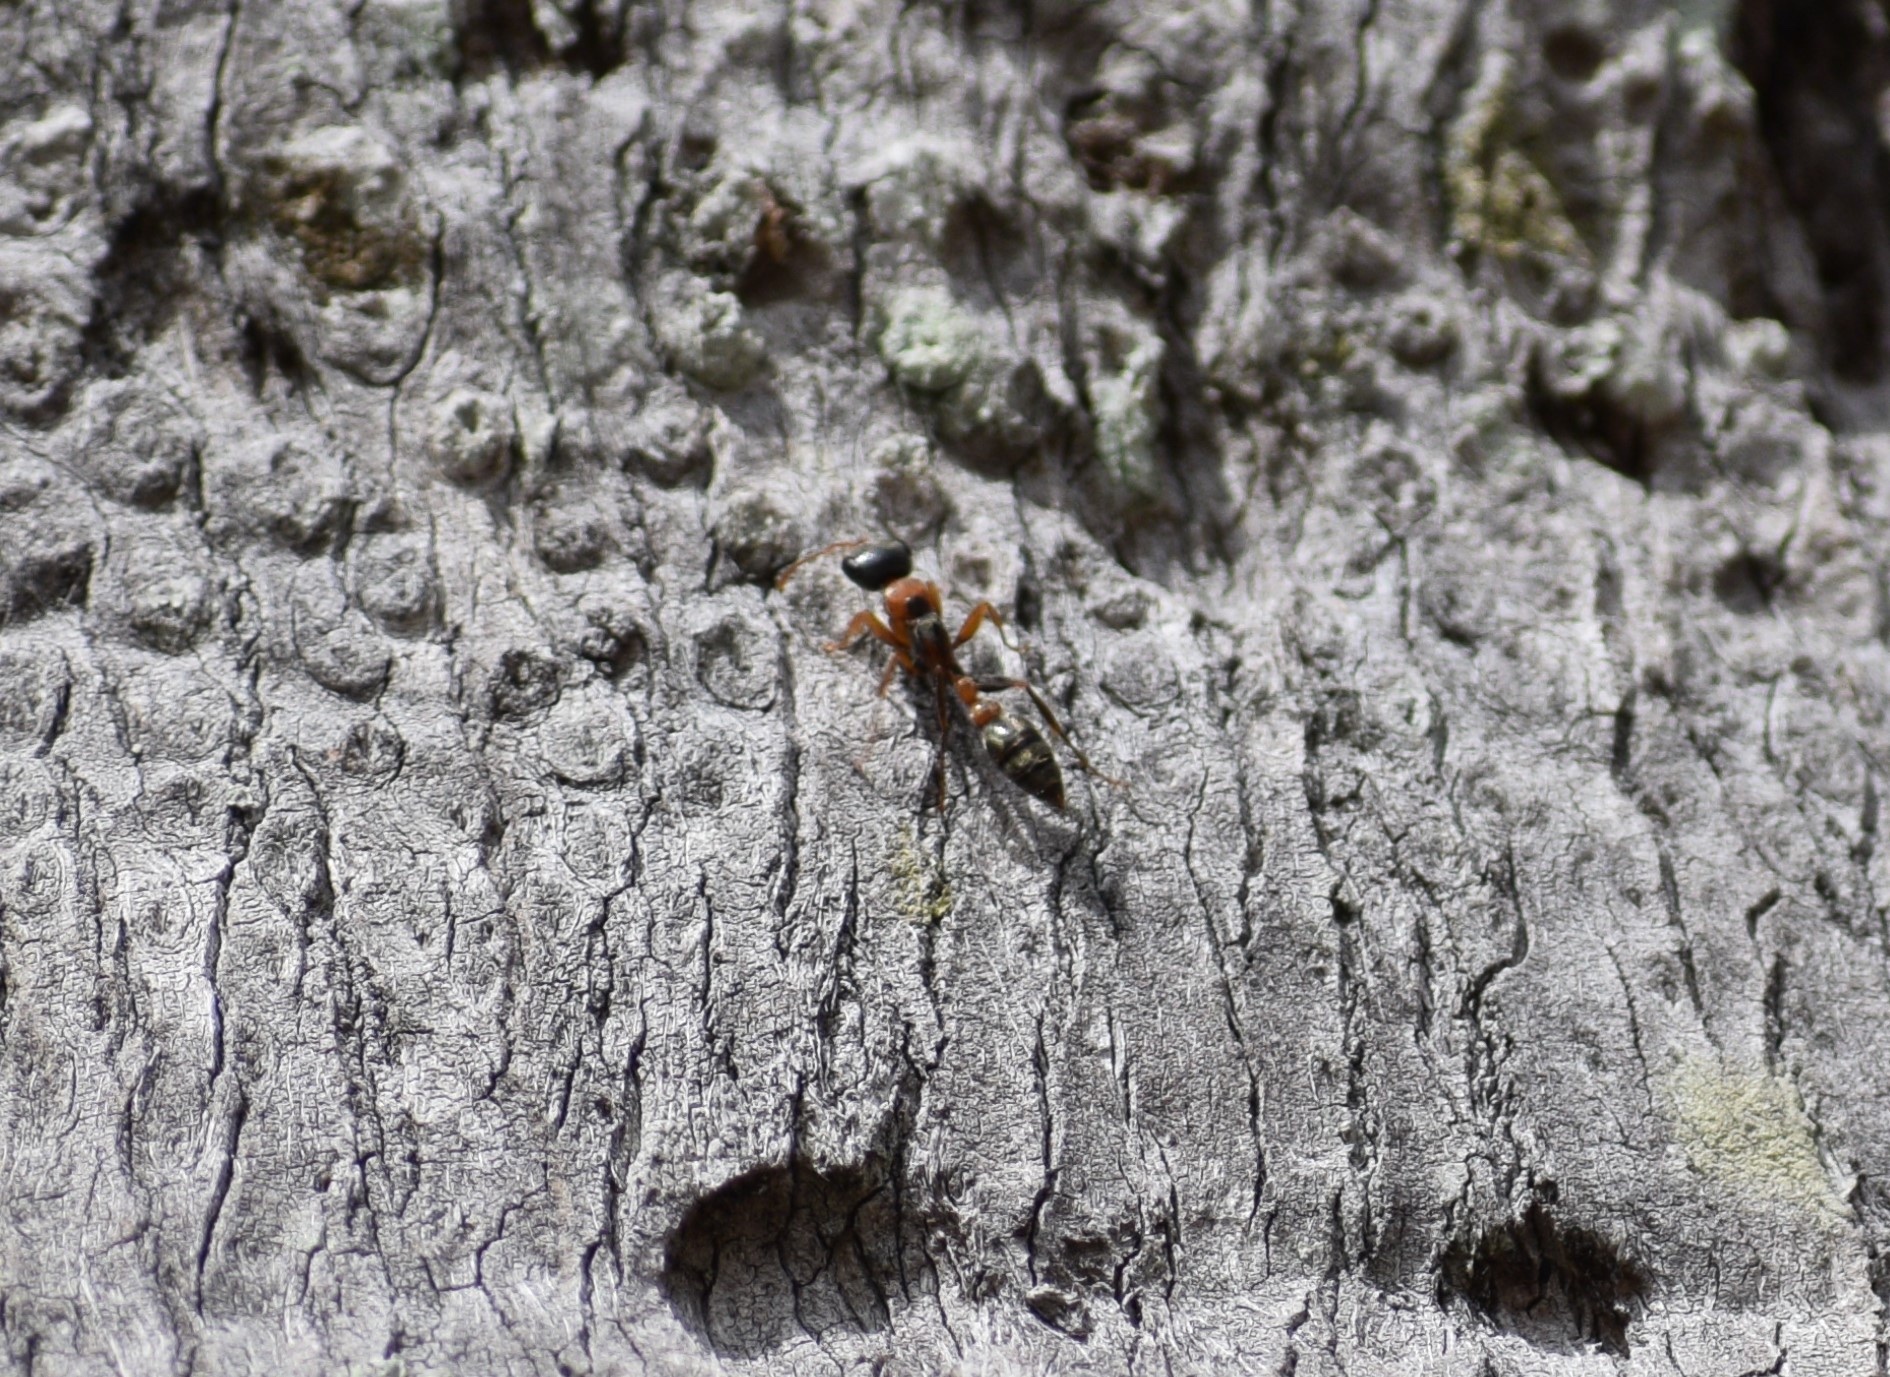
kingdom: Animalia
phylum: Arthropoda
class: Insecta
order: Hymenoptera
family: Formicidae
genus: Pseudomyrmex
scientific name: Pseudomyrmex gracilis
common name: Graceful twig ant
